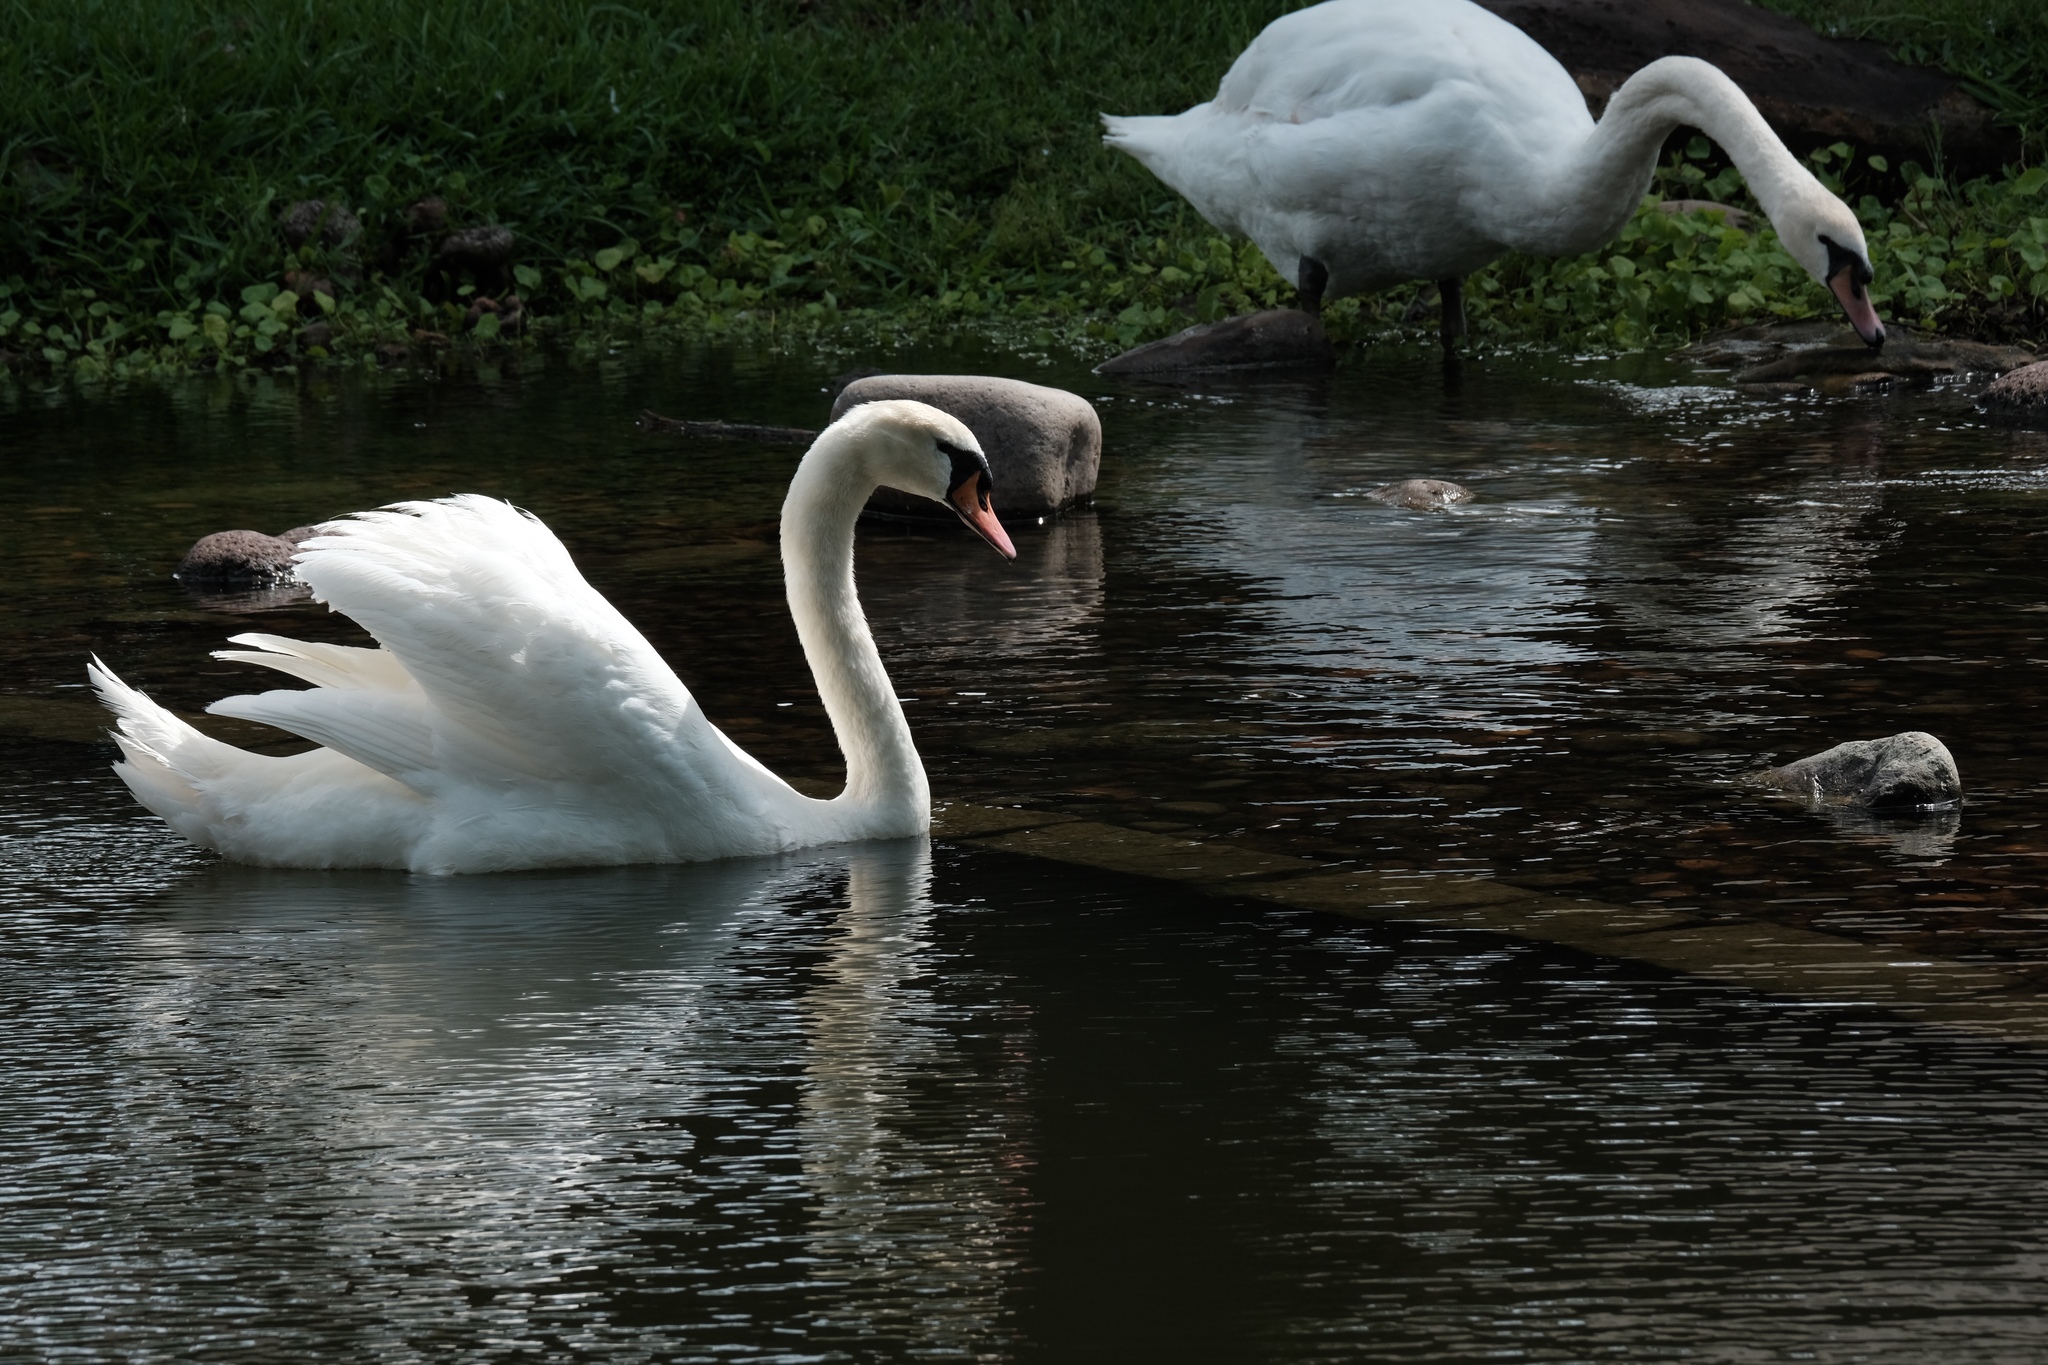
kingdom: Animalia
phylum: Chordata
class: Aves
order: Anseriformes
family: Anatidae
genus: Cygnus
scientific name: Cygnus olor
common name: Mute swan
